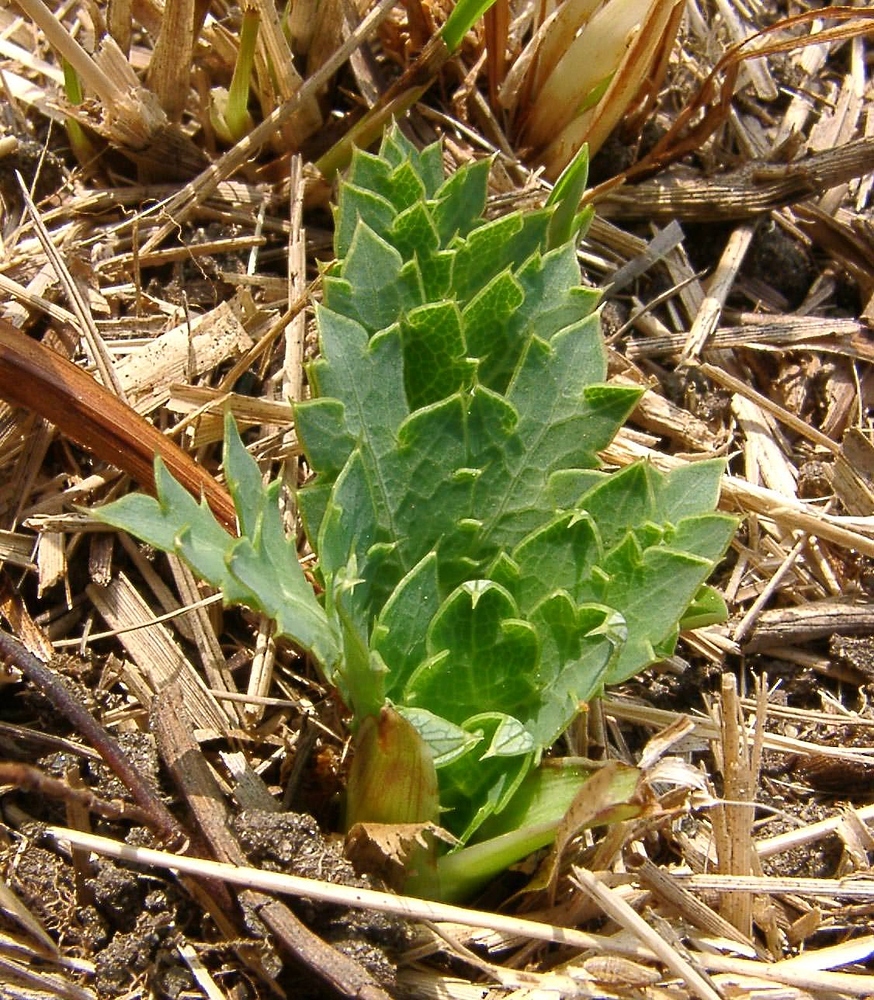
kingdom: Plantae
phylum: Tracheophyta
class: Magnoliopsida
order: Apiales
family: Apiaceae
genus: Eryngium
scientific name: Eryngium campestre
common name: Field eryngo
